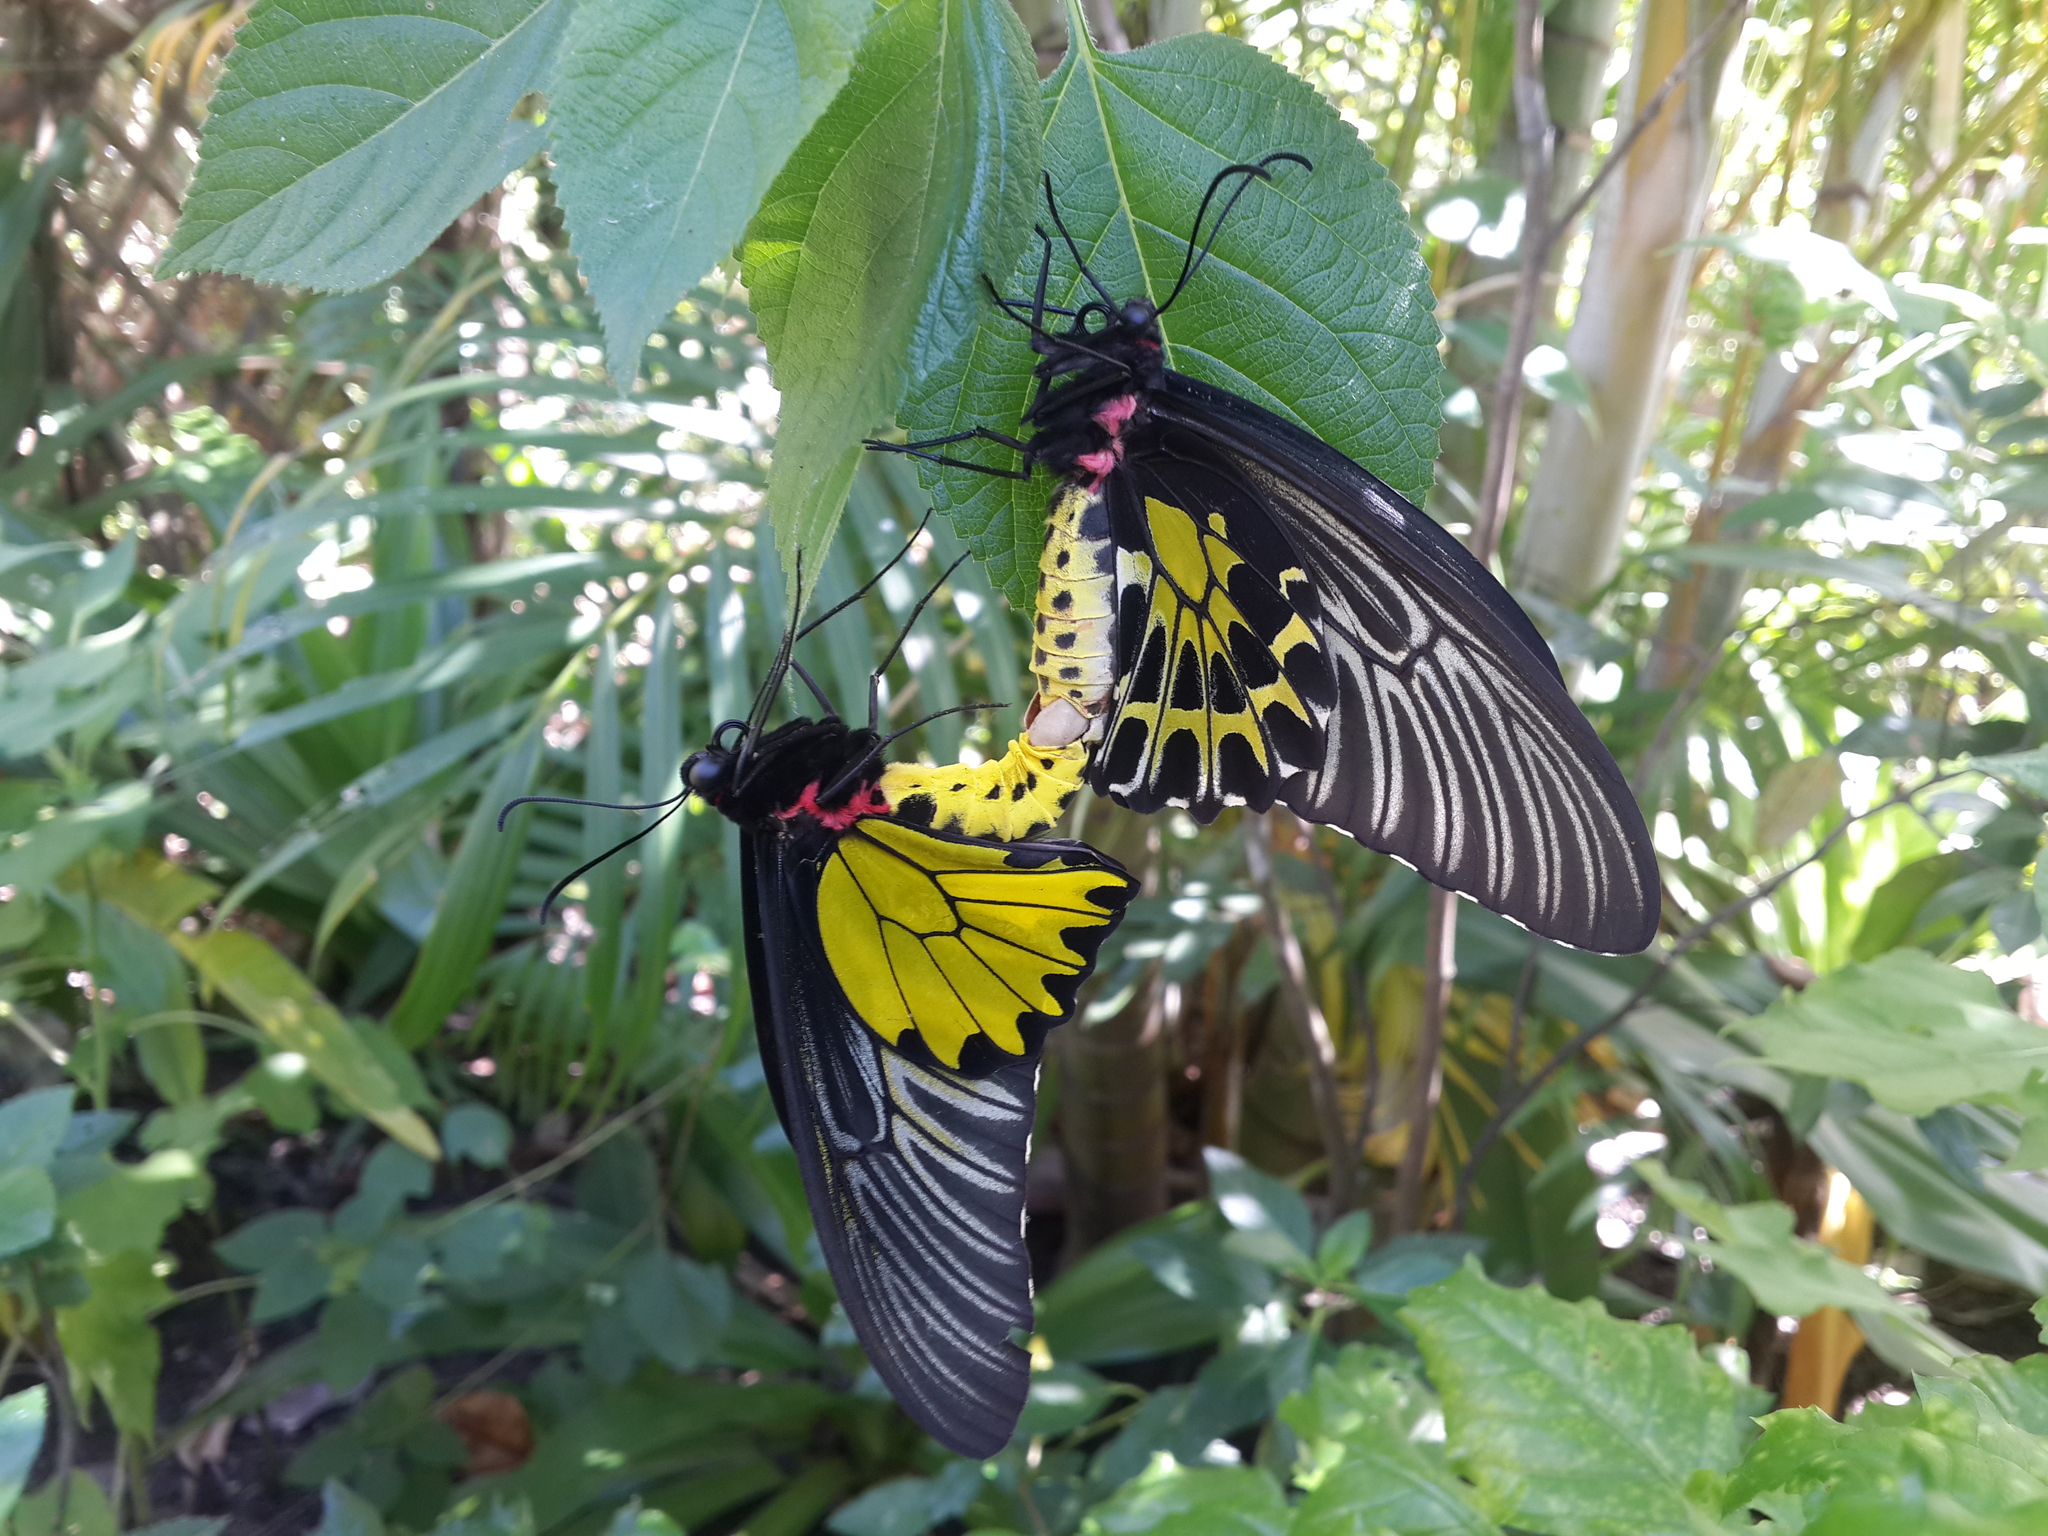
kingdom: Animalia
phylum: Arthropoda
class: Insecta
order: Lepidoptera
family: Papilionidae
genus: Troides
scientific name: Troides aeacus
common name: Golden birdwing
